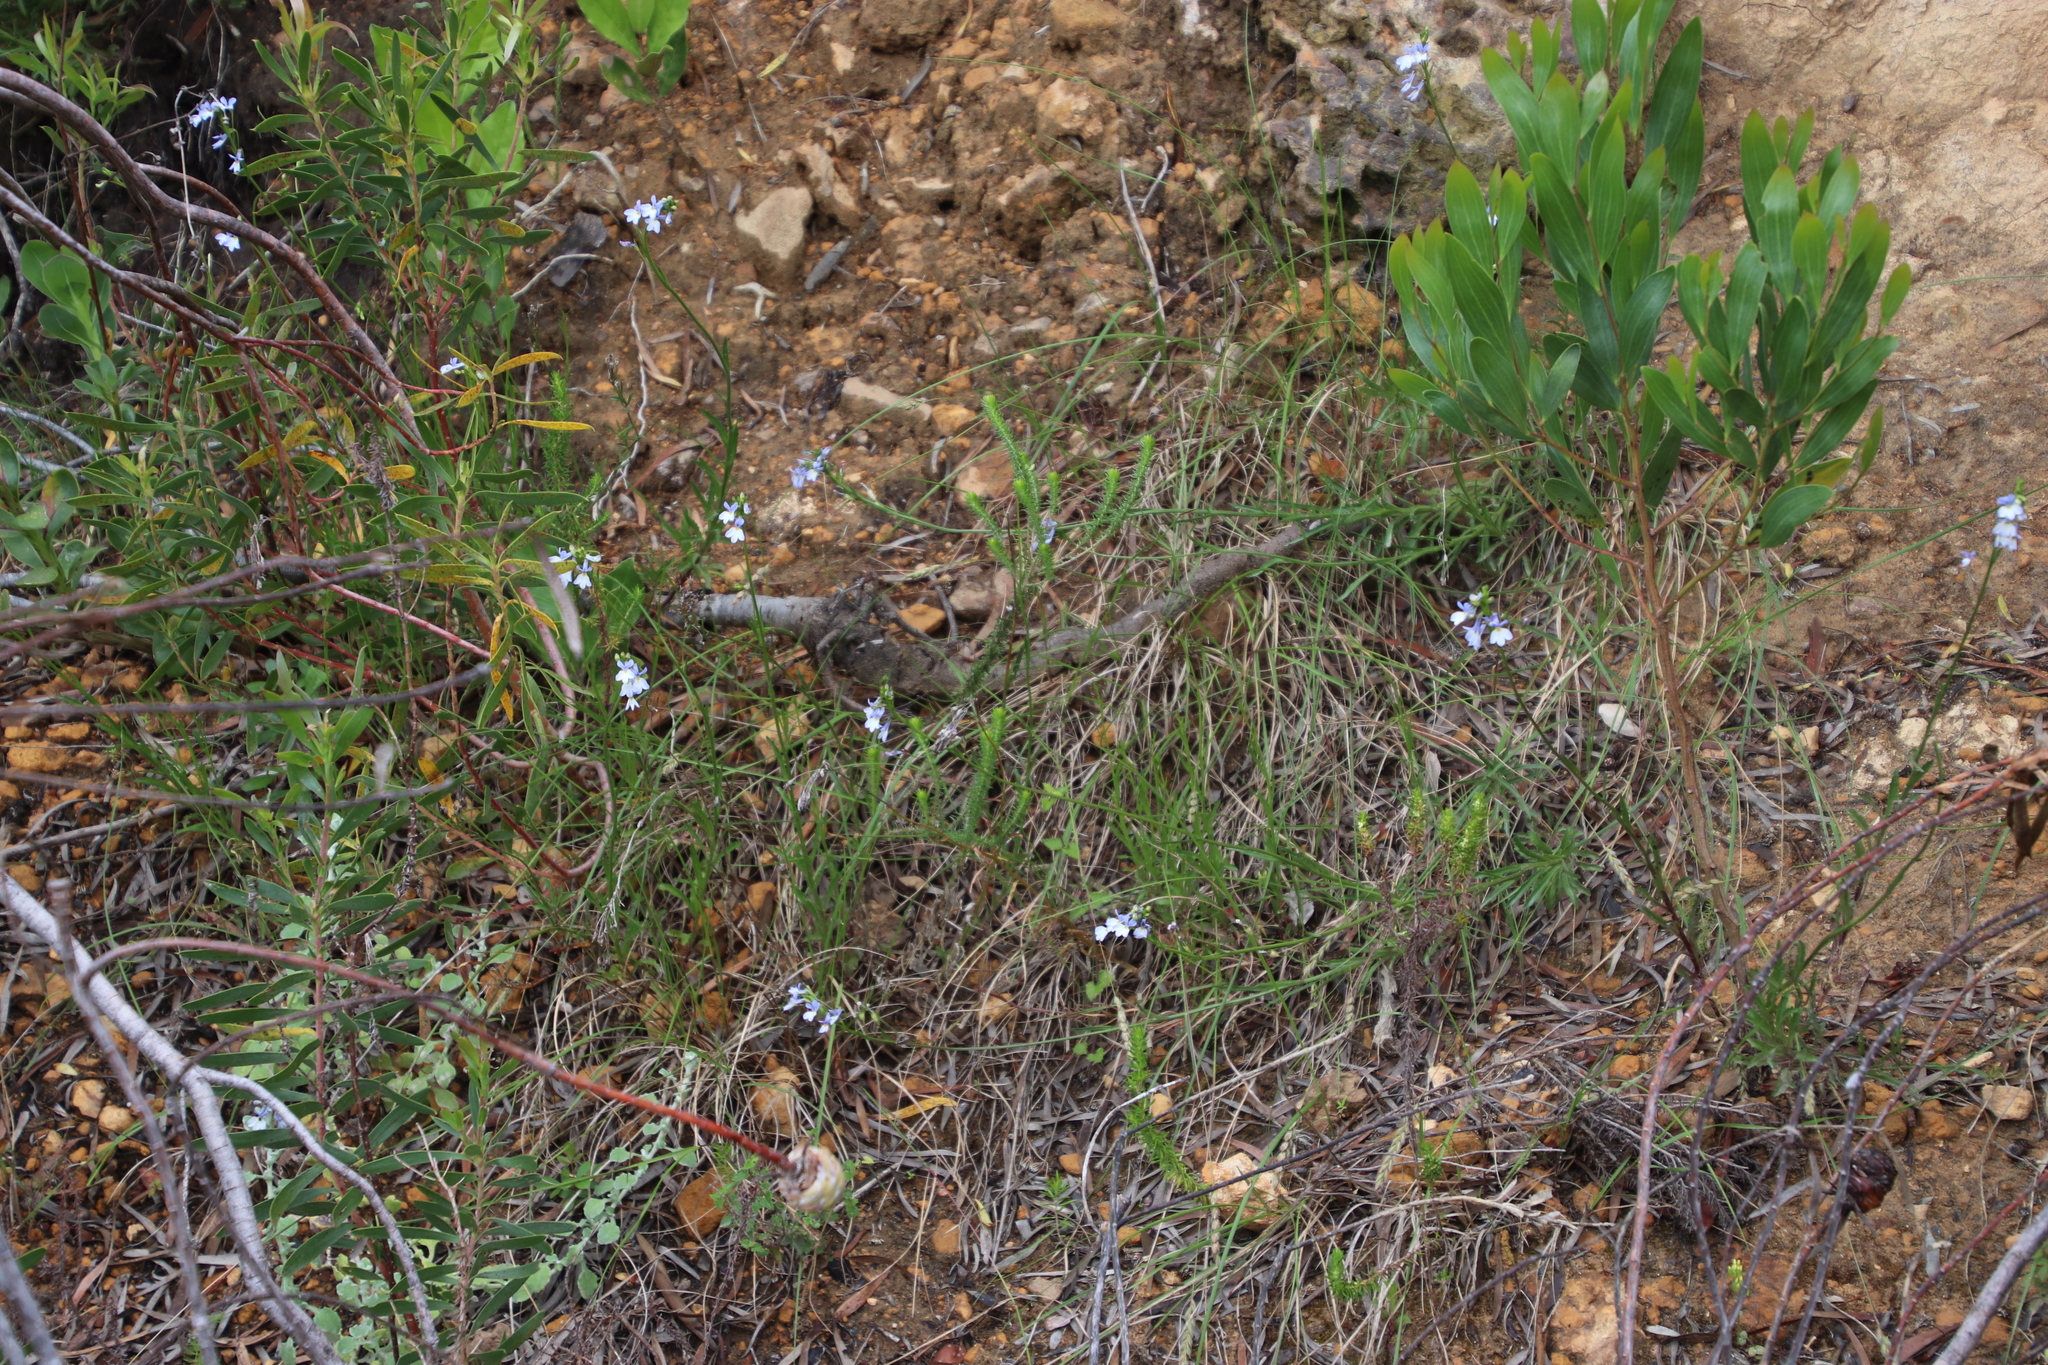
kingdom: Plantae
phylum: Tracheophyta
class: Magnoliopsida
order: Asterales
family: Campanulaceae
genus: Lobelia
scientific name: Lobelia comosa
